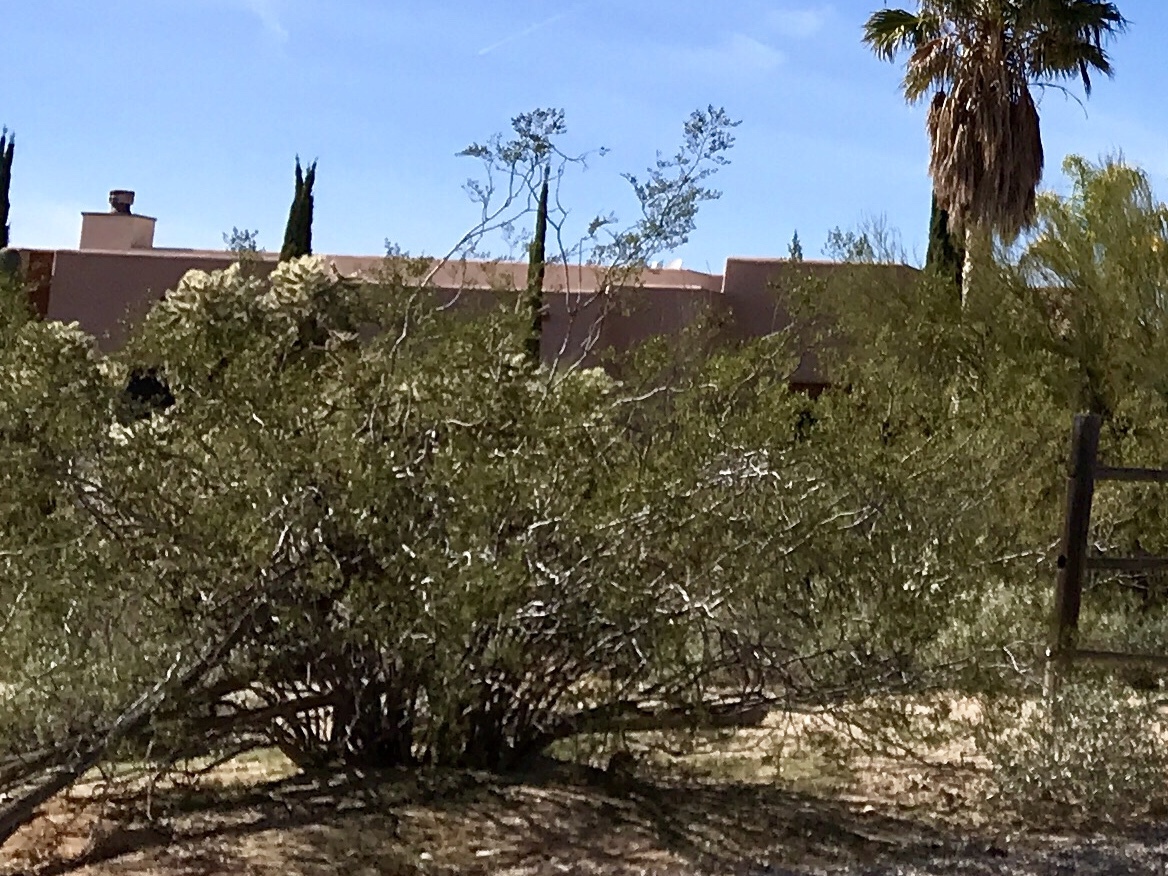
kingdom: Plantae
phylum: Tracheophyta
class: Magnoliopsida
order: Zygophyllales
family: Zygophyllaceae
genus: Larrea
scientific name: Larrea tridentata
